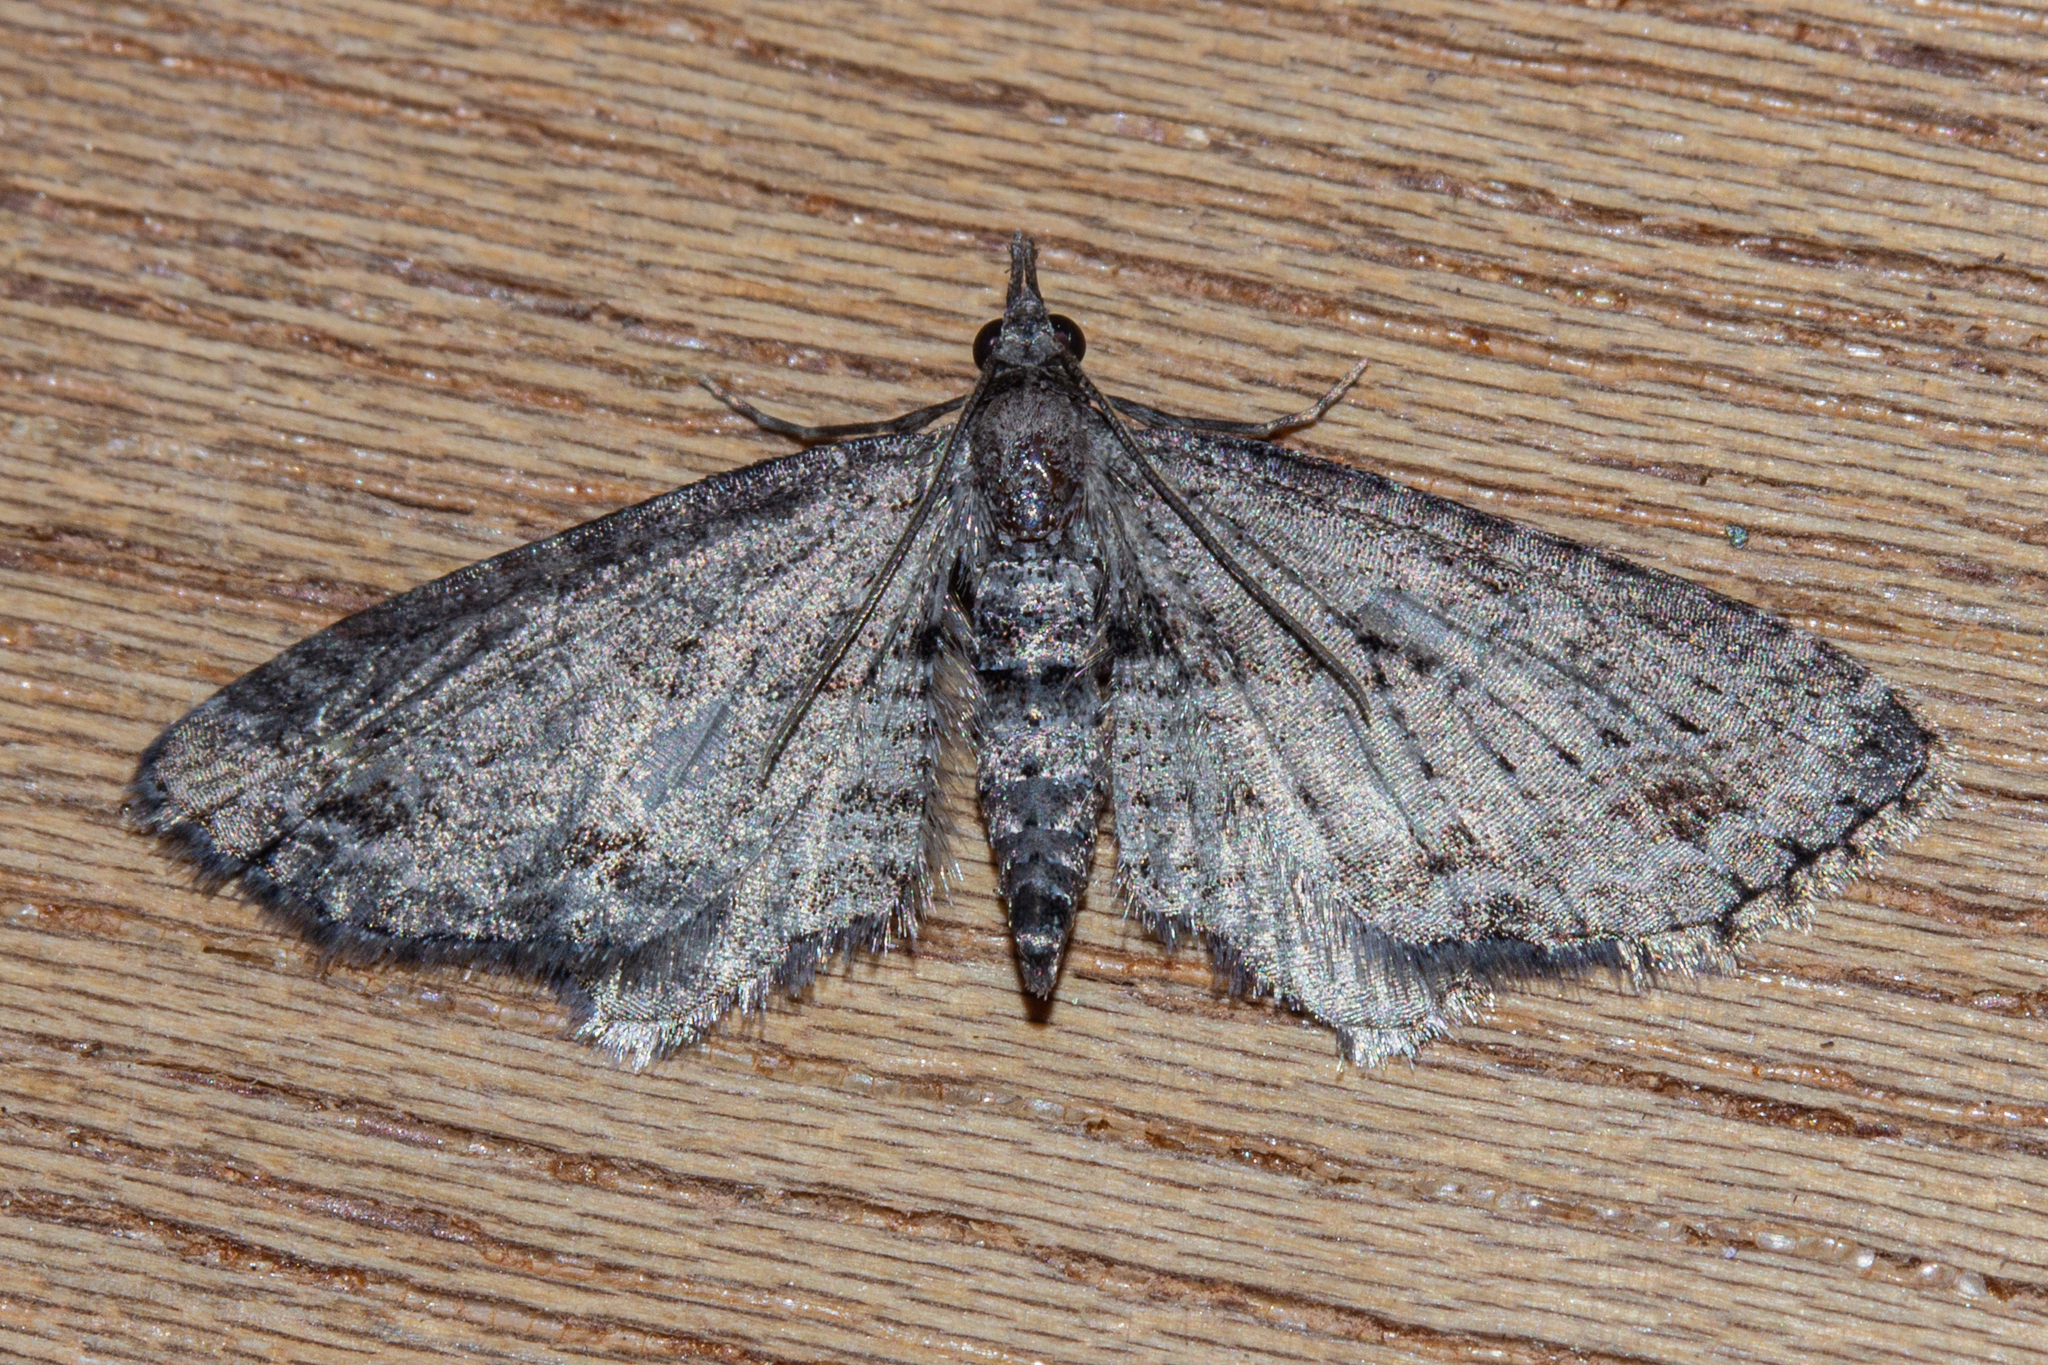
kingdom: Animalia
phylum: Arthropoda
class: Insecta
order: Lepidoptera
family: Geometridae
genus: Pasiphila
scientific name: Pasiphila humilis
